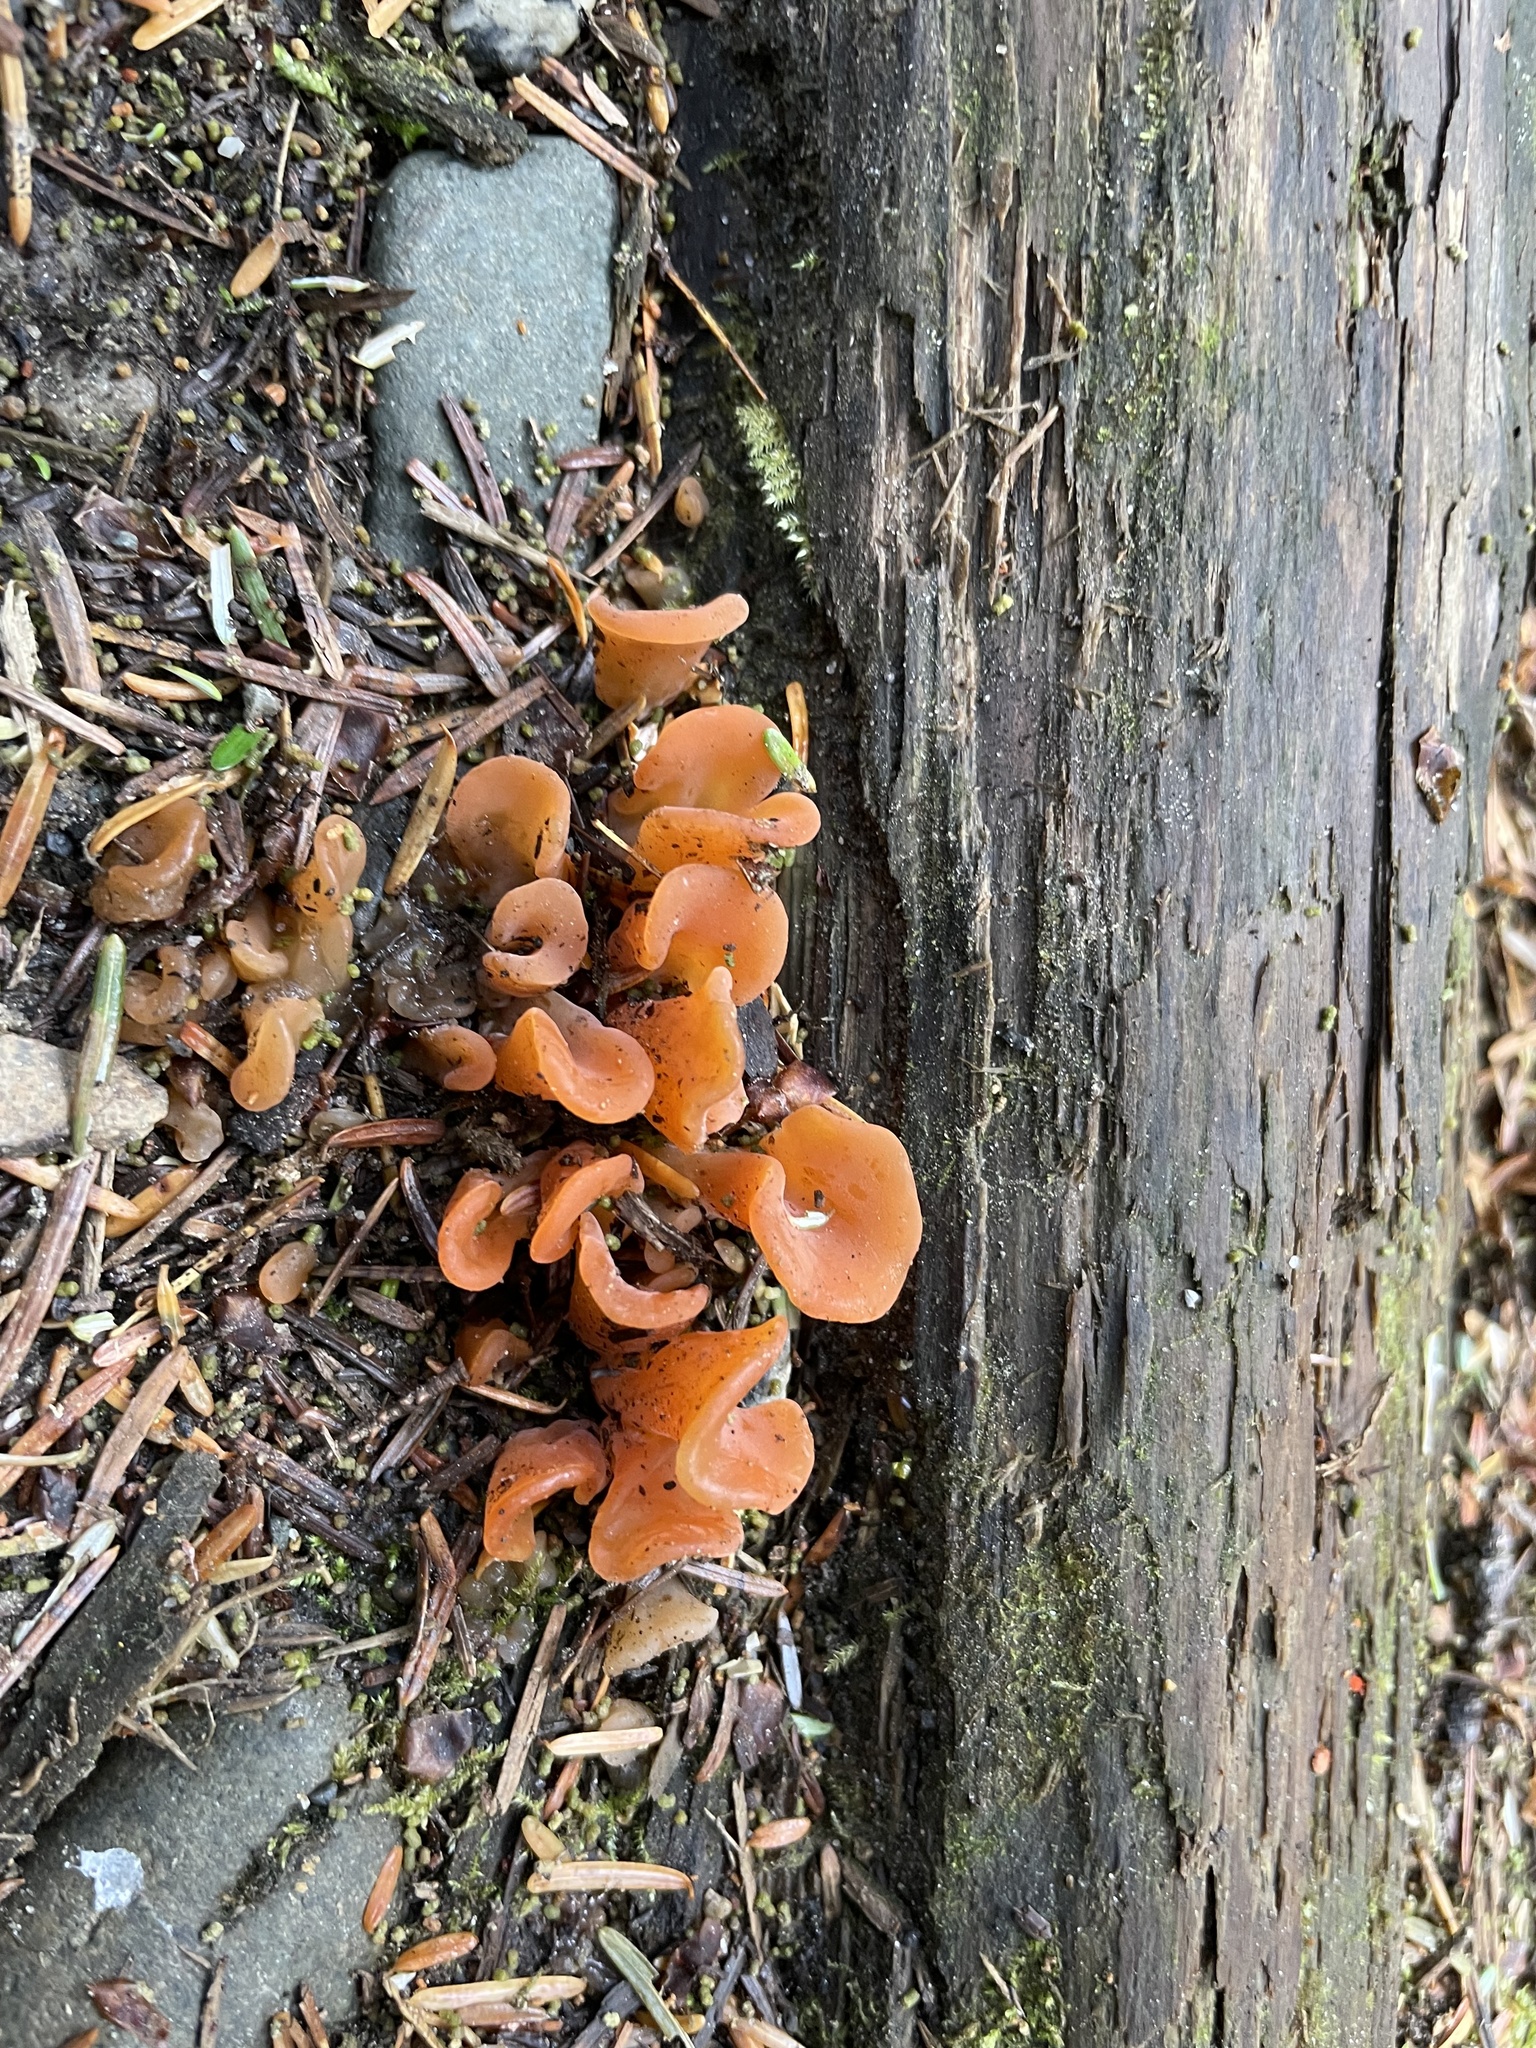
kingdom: Fungi
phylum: Basidiomycota
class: Agaricomycetes
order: Auriculariales
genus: Guepinia
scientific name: Guepinia helvelloides
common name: Salmon salad
